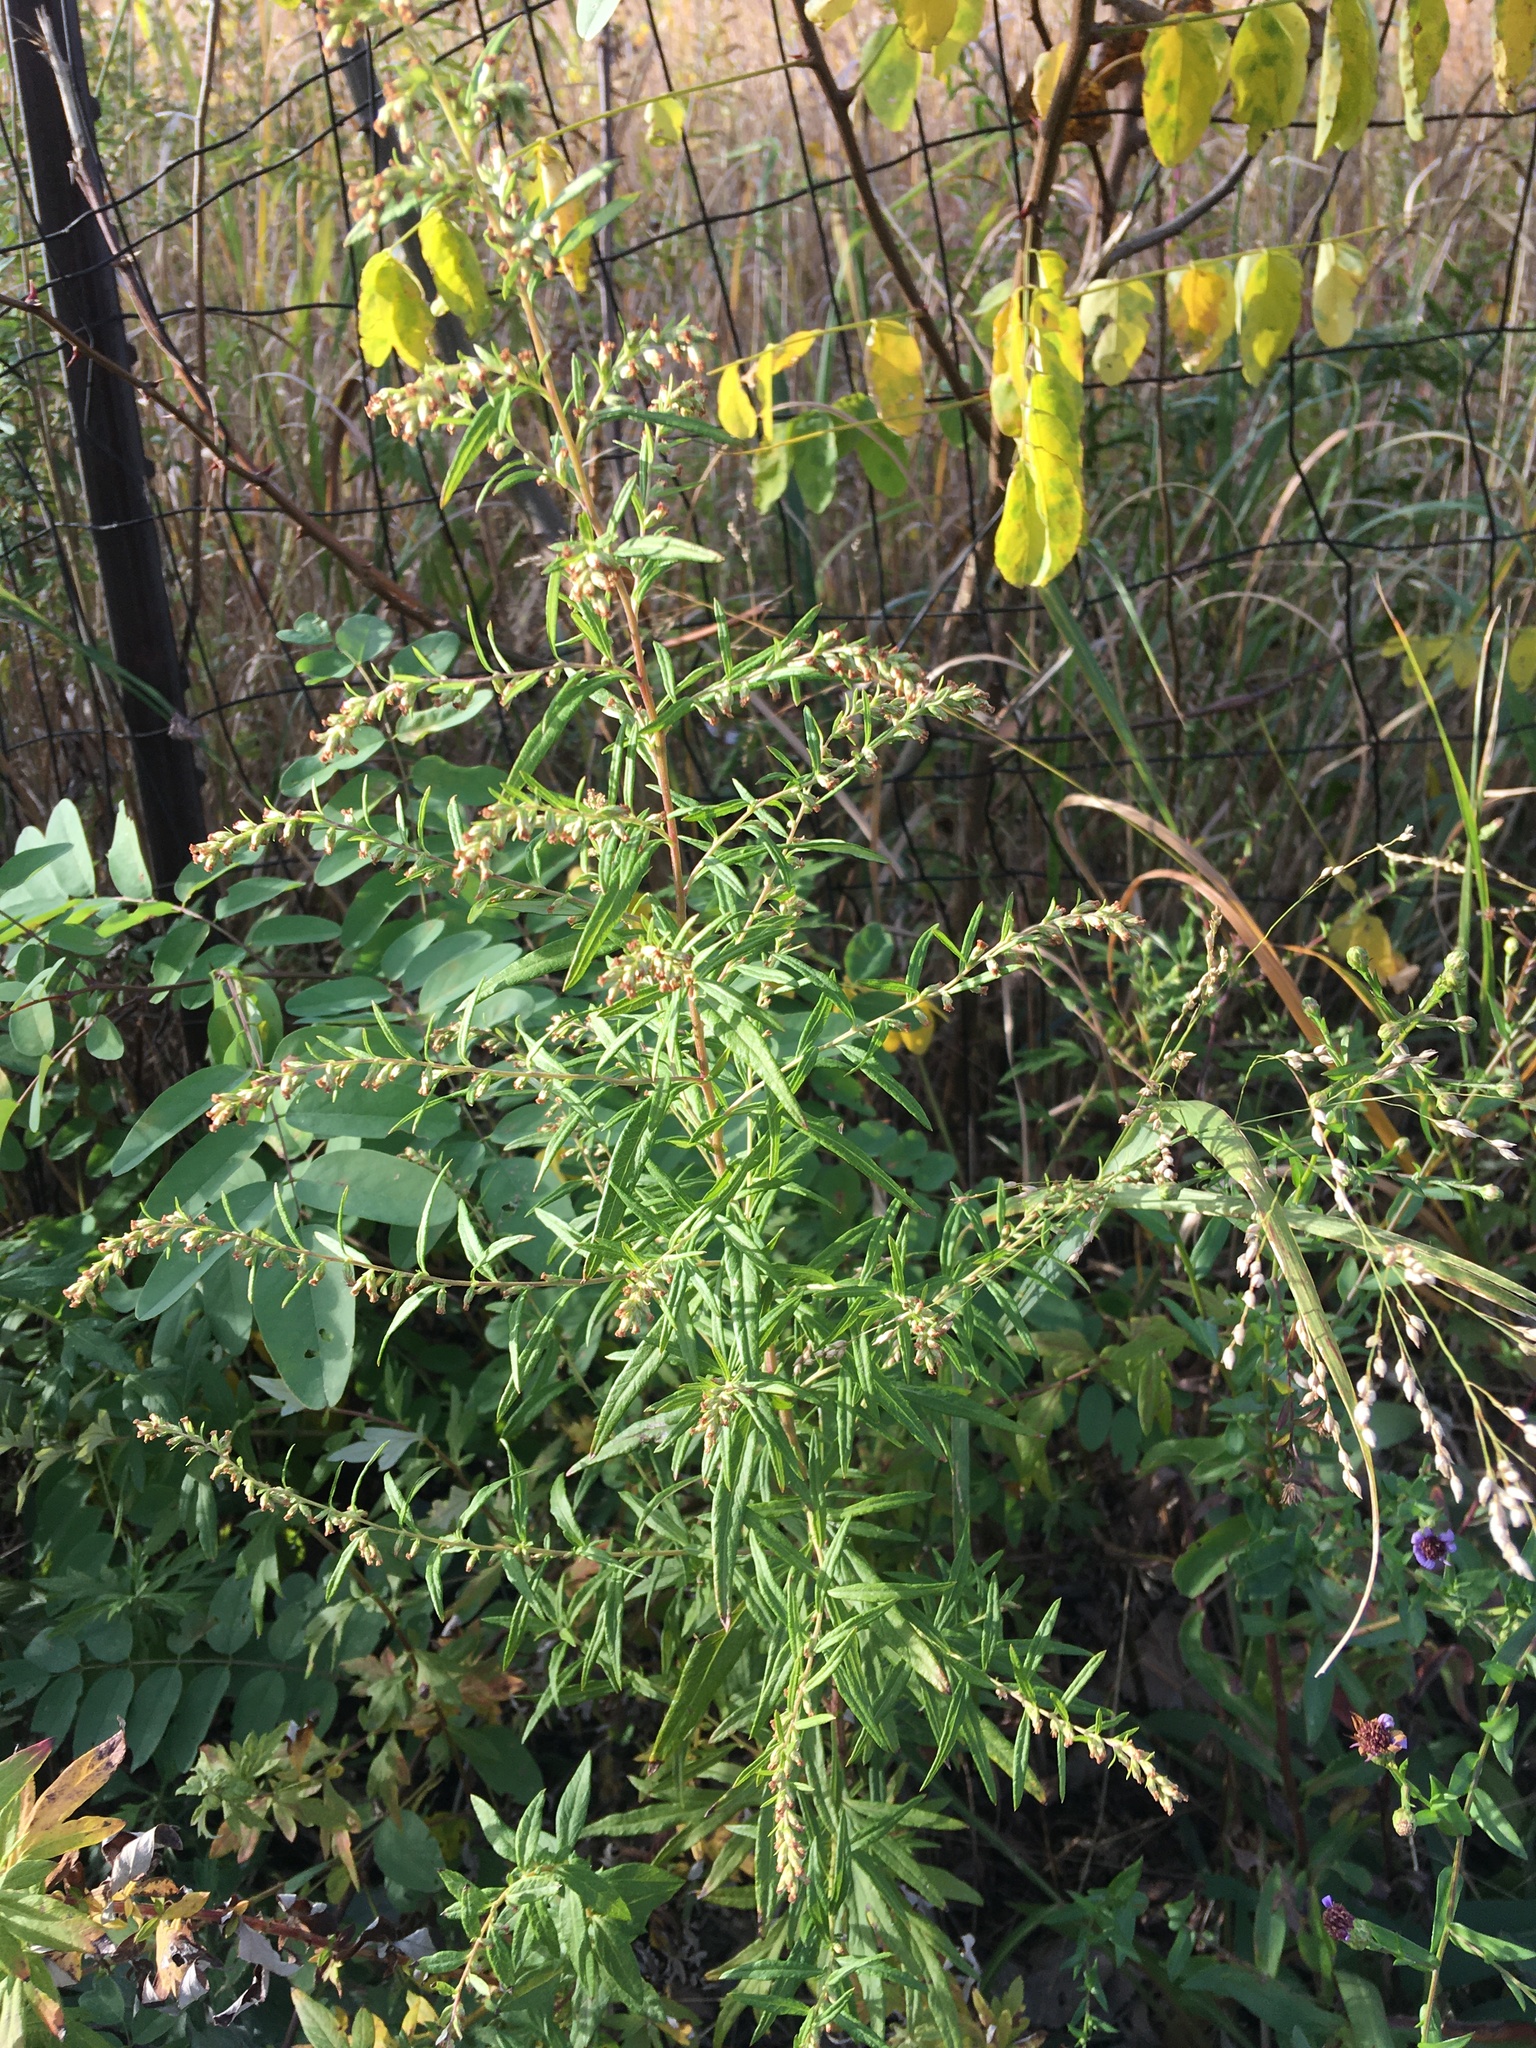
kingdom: Plantae
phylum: Tracheophyta
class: Magnoliopsida
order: Asterales
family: Asteraceae
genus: Artemisia
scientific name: Artemisia vulgaris
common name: Mugwort
